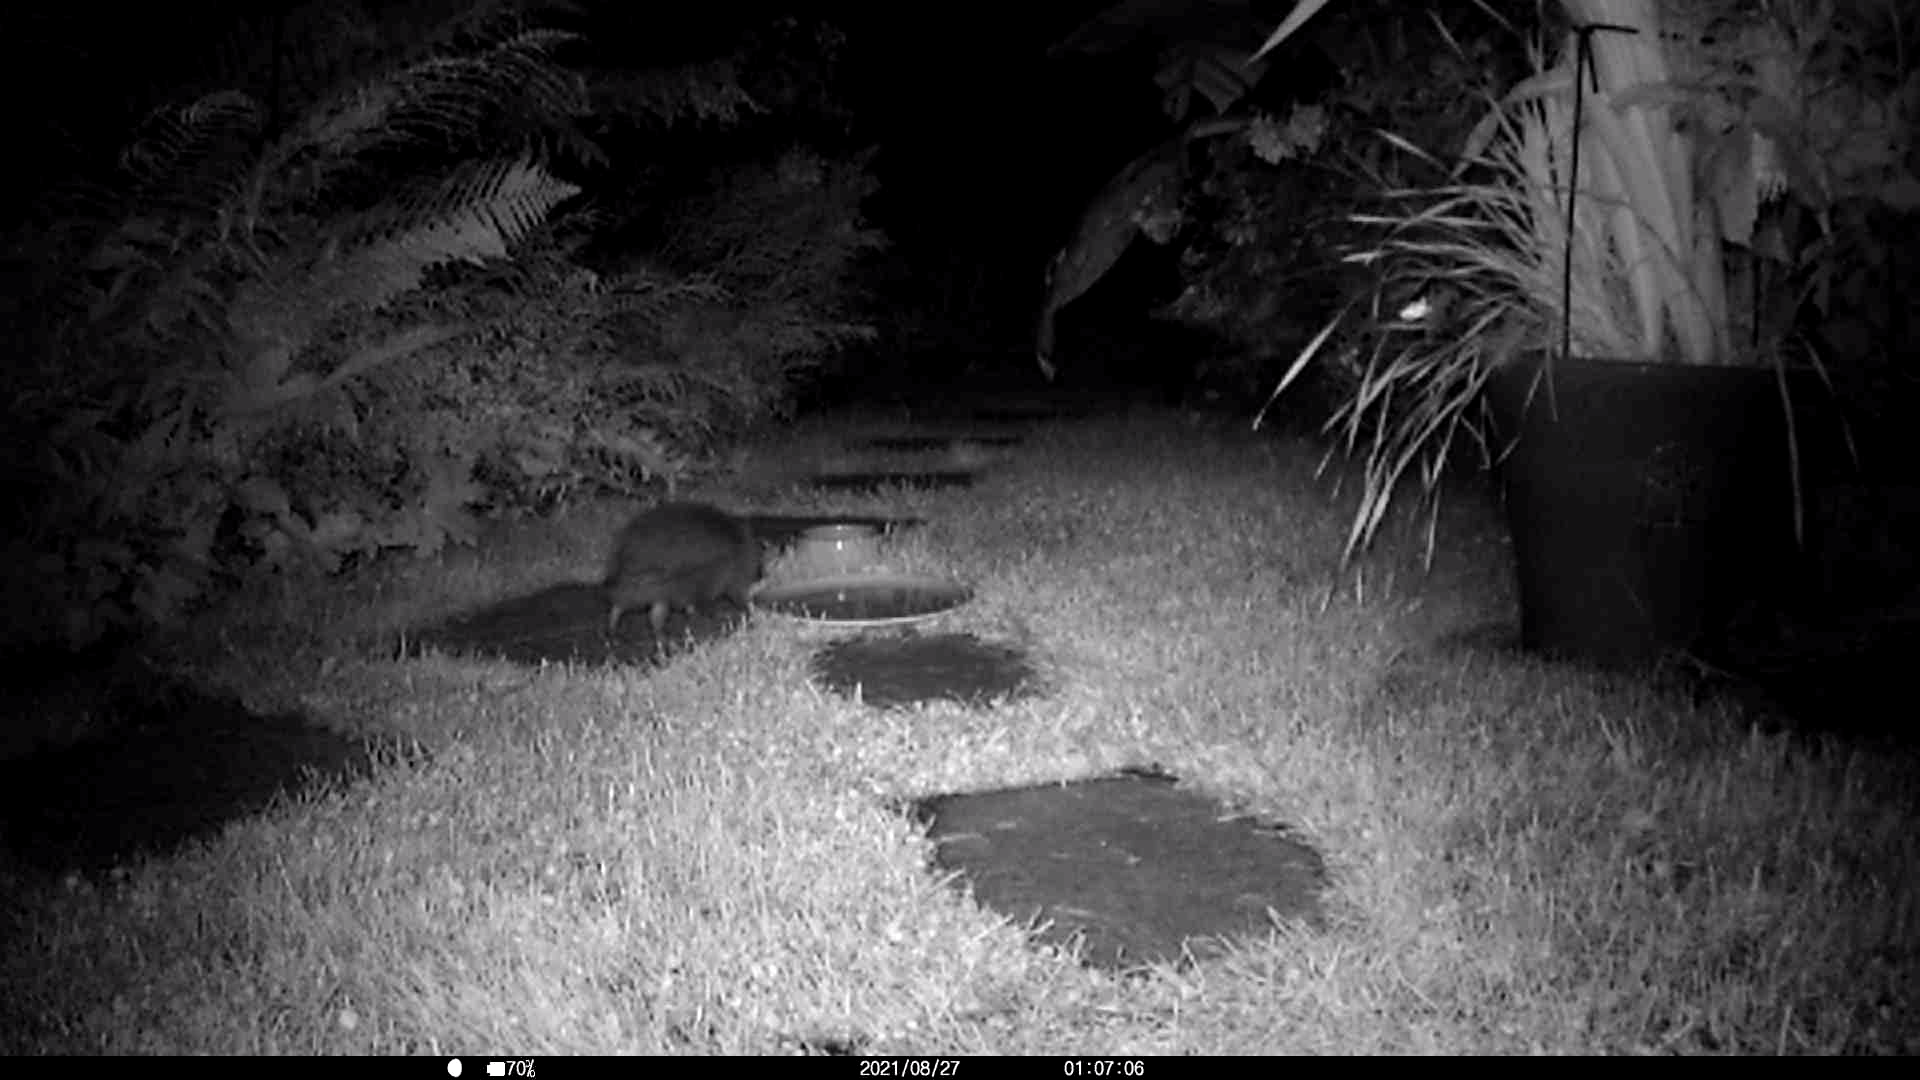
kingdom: Animalia
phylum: Chordata
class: Mammalia
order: Erinaceomorpha
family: Erinaceidae
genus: Erinaceus
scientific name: Erinaceus europaeus
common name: West european hedgehog
